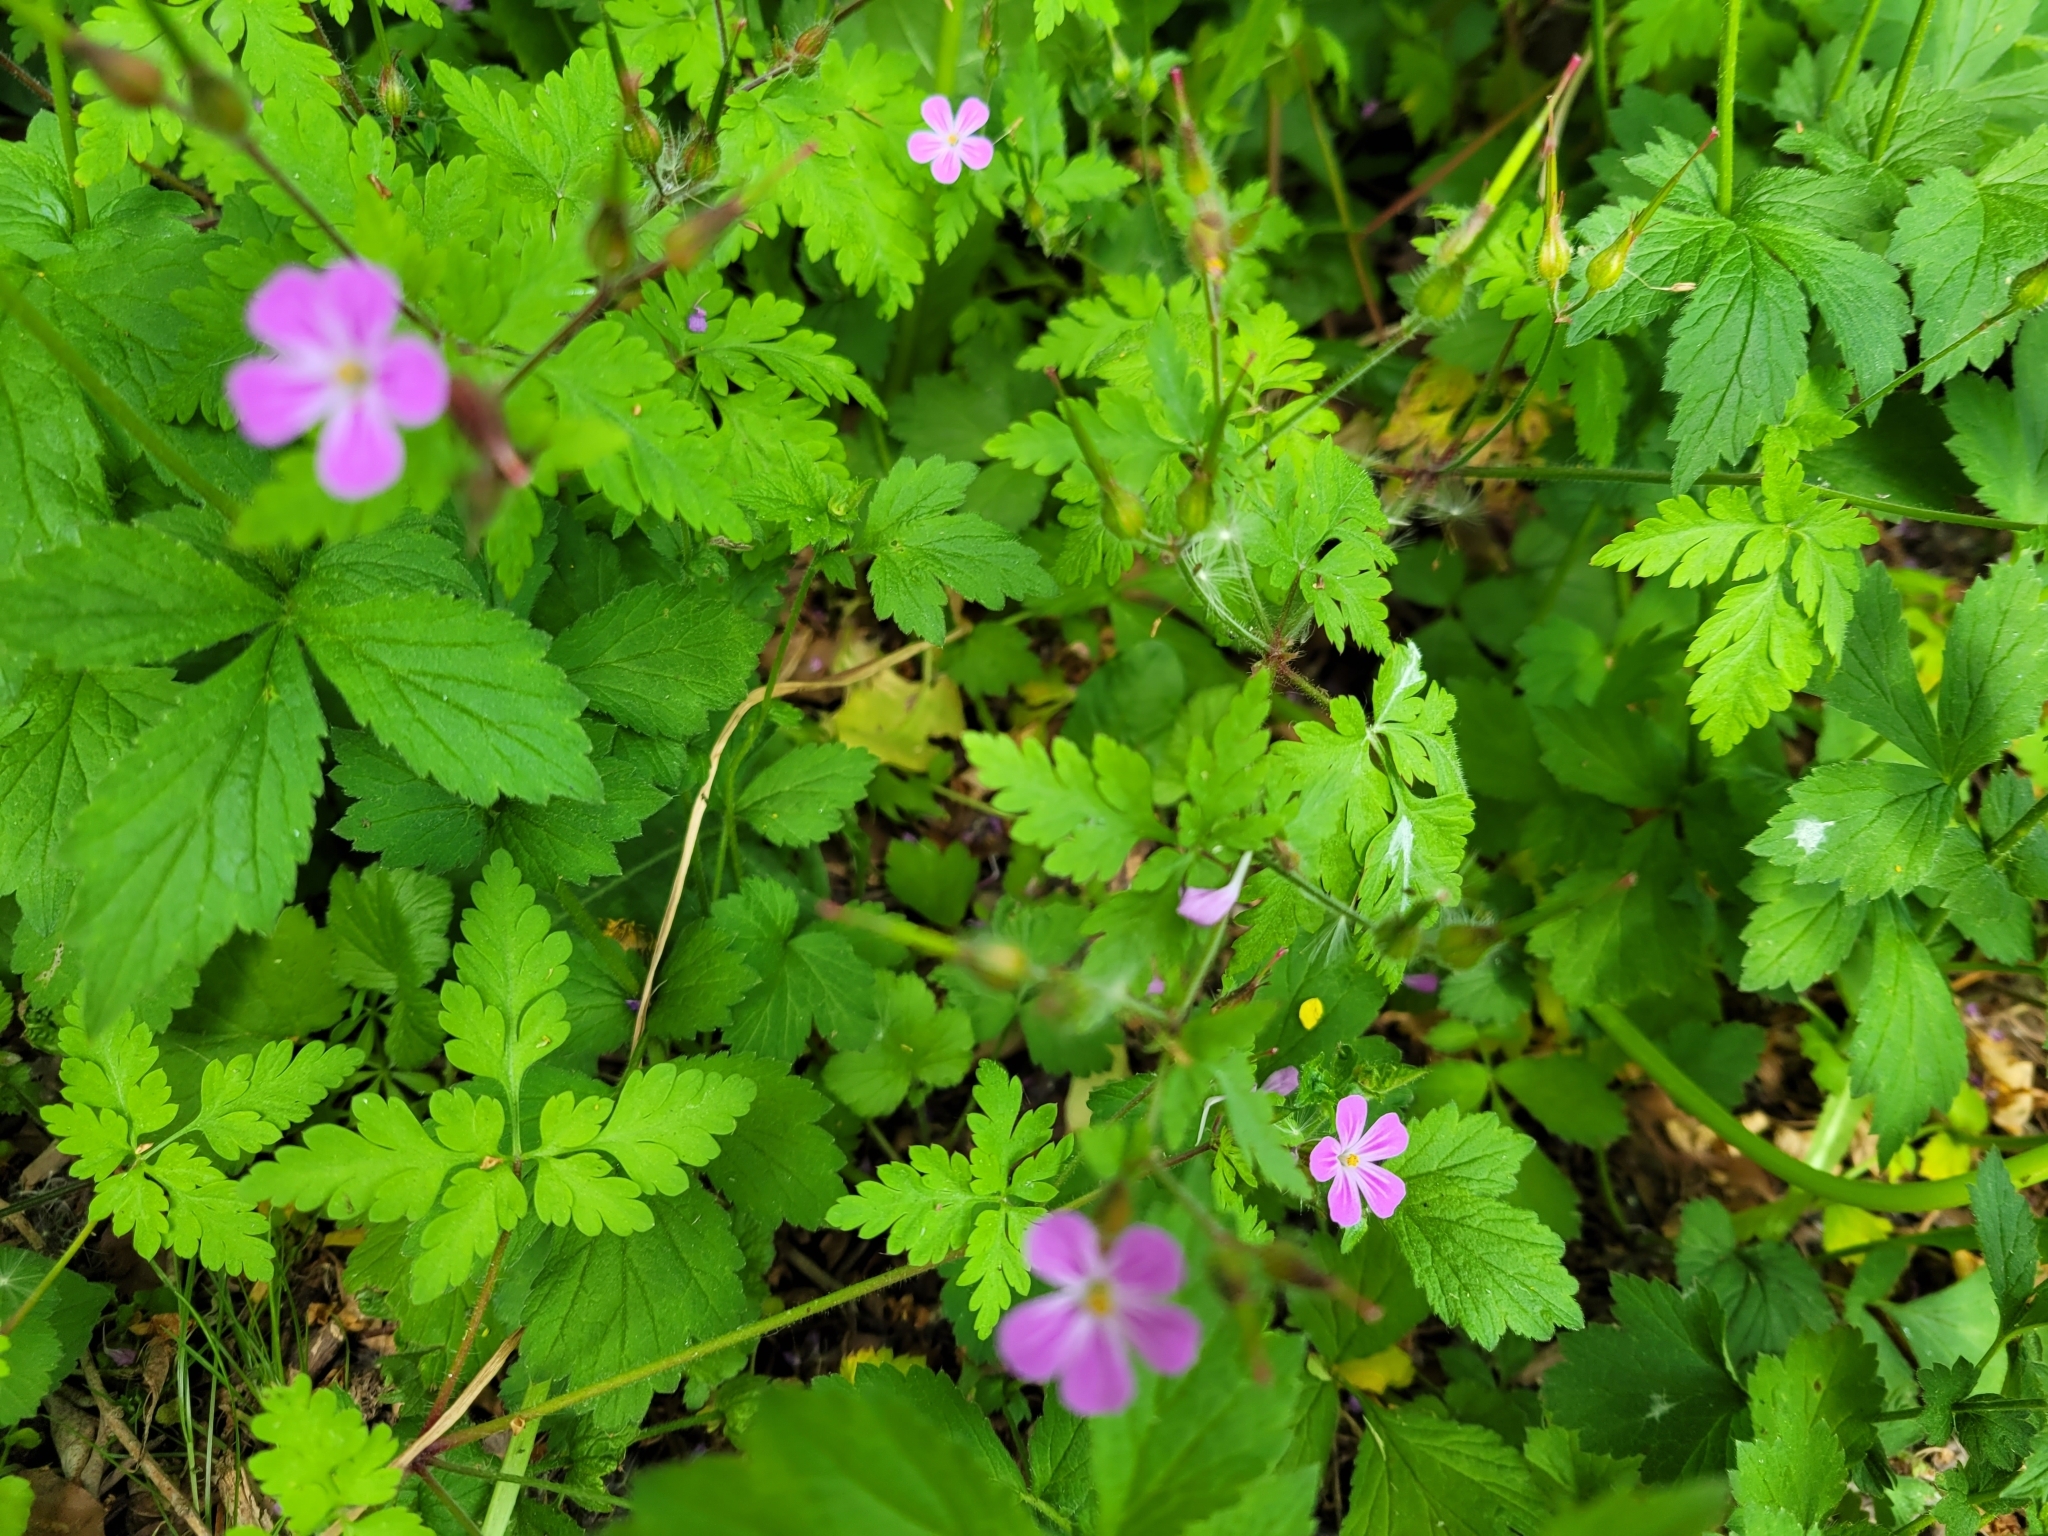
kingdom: Plantae
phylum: Tracheophyta
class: Magnoliopsida
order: Geraniales
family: Geraniaceae
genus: Geranium
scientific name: Geranium robertianum
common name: Herb-robert
